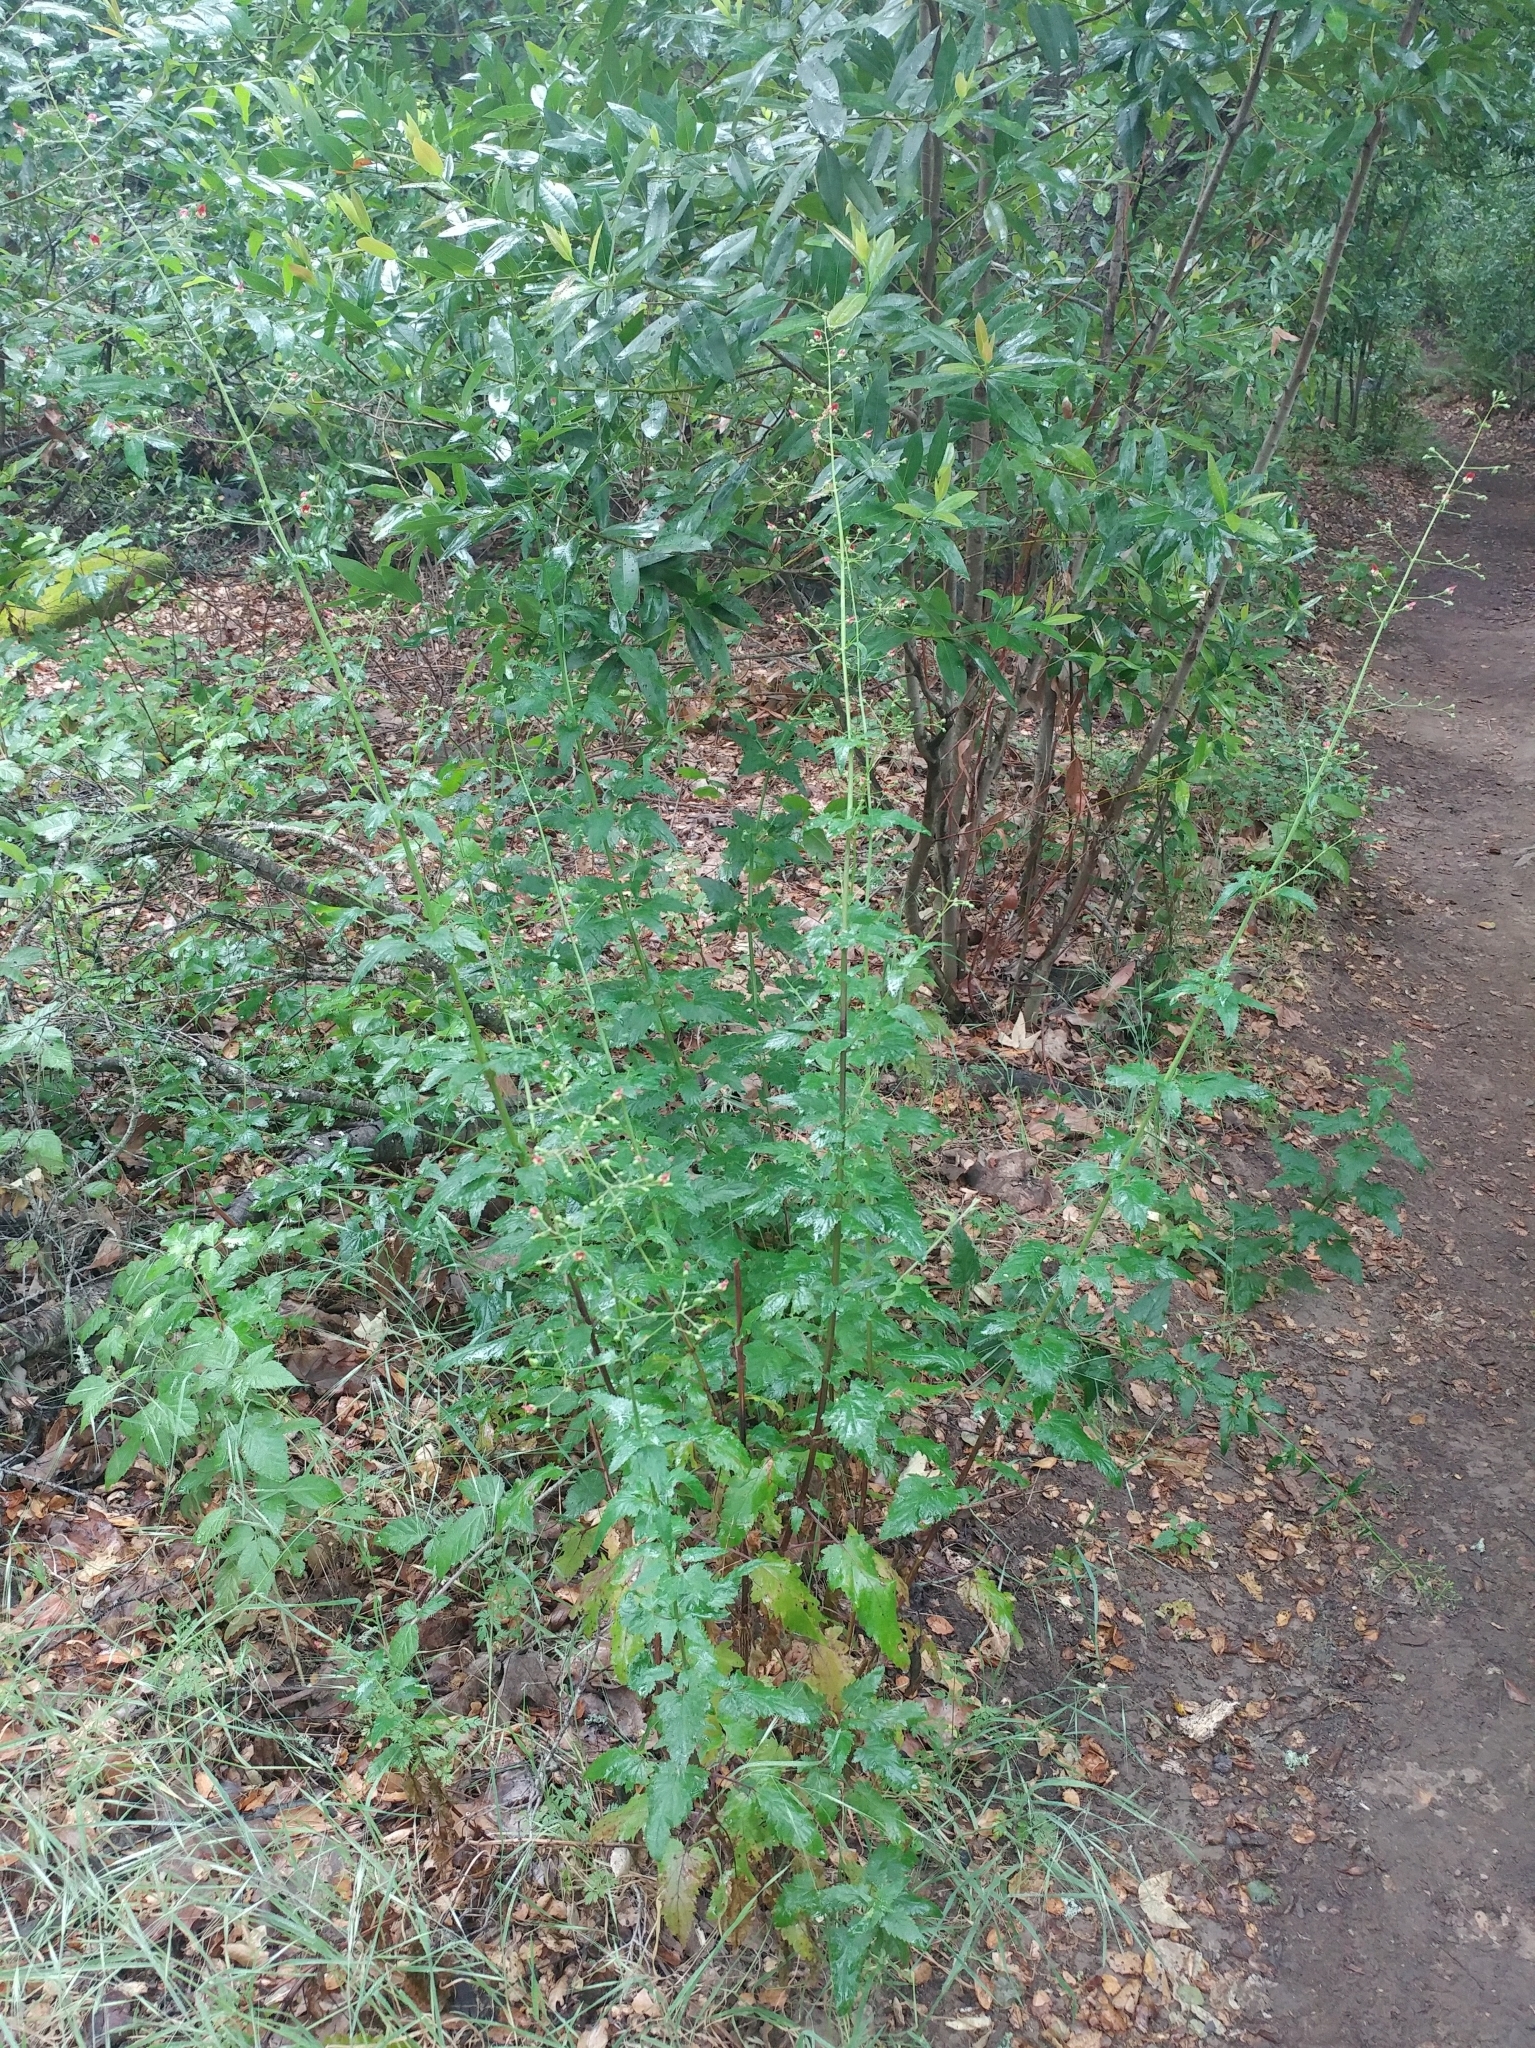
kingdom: Plantae
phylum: Tracheophyta
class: Magnoliopsida
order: Lamiales
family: Scrophulariaceae
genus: Scrophularia
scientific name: Scrophularia californica
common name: California figwort
